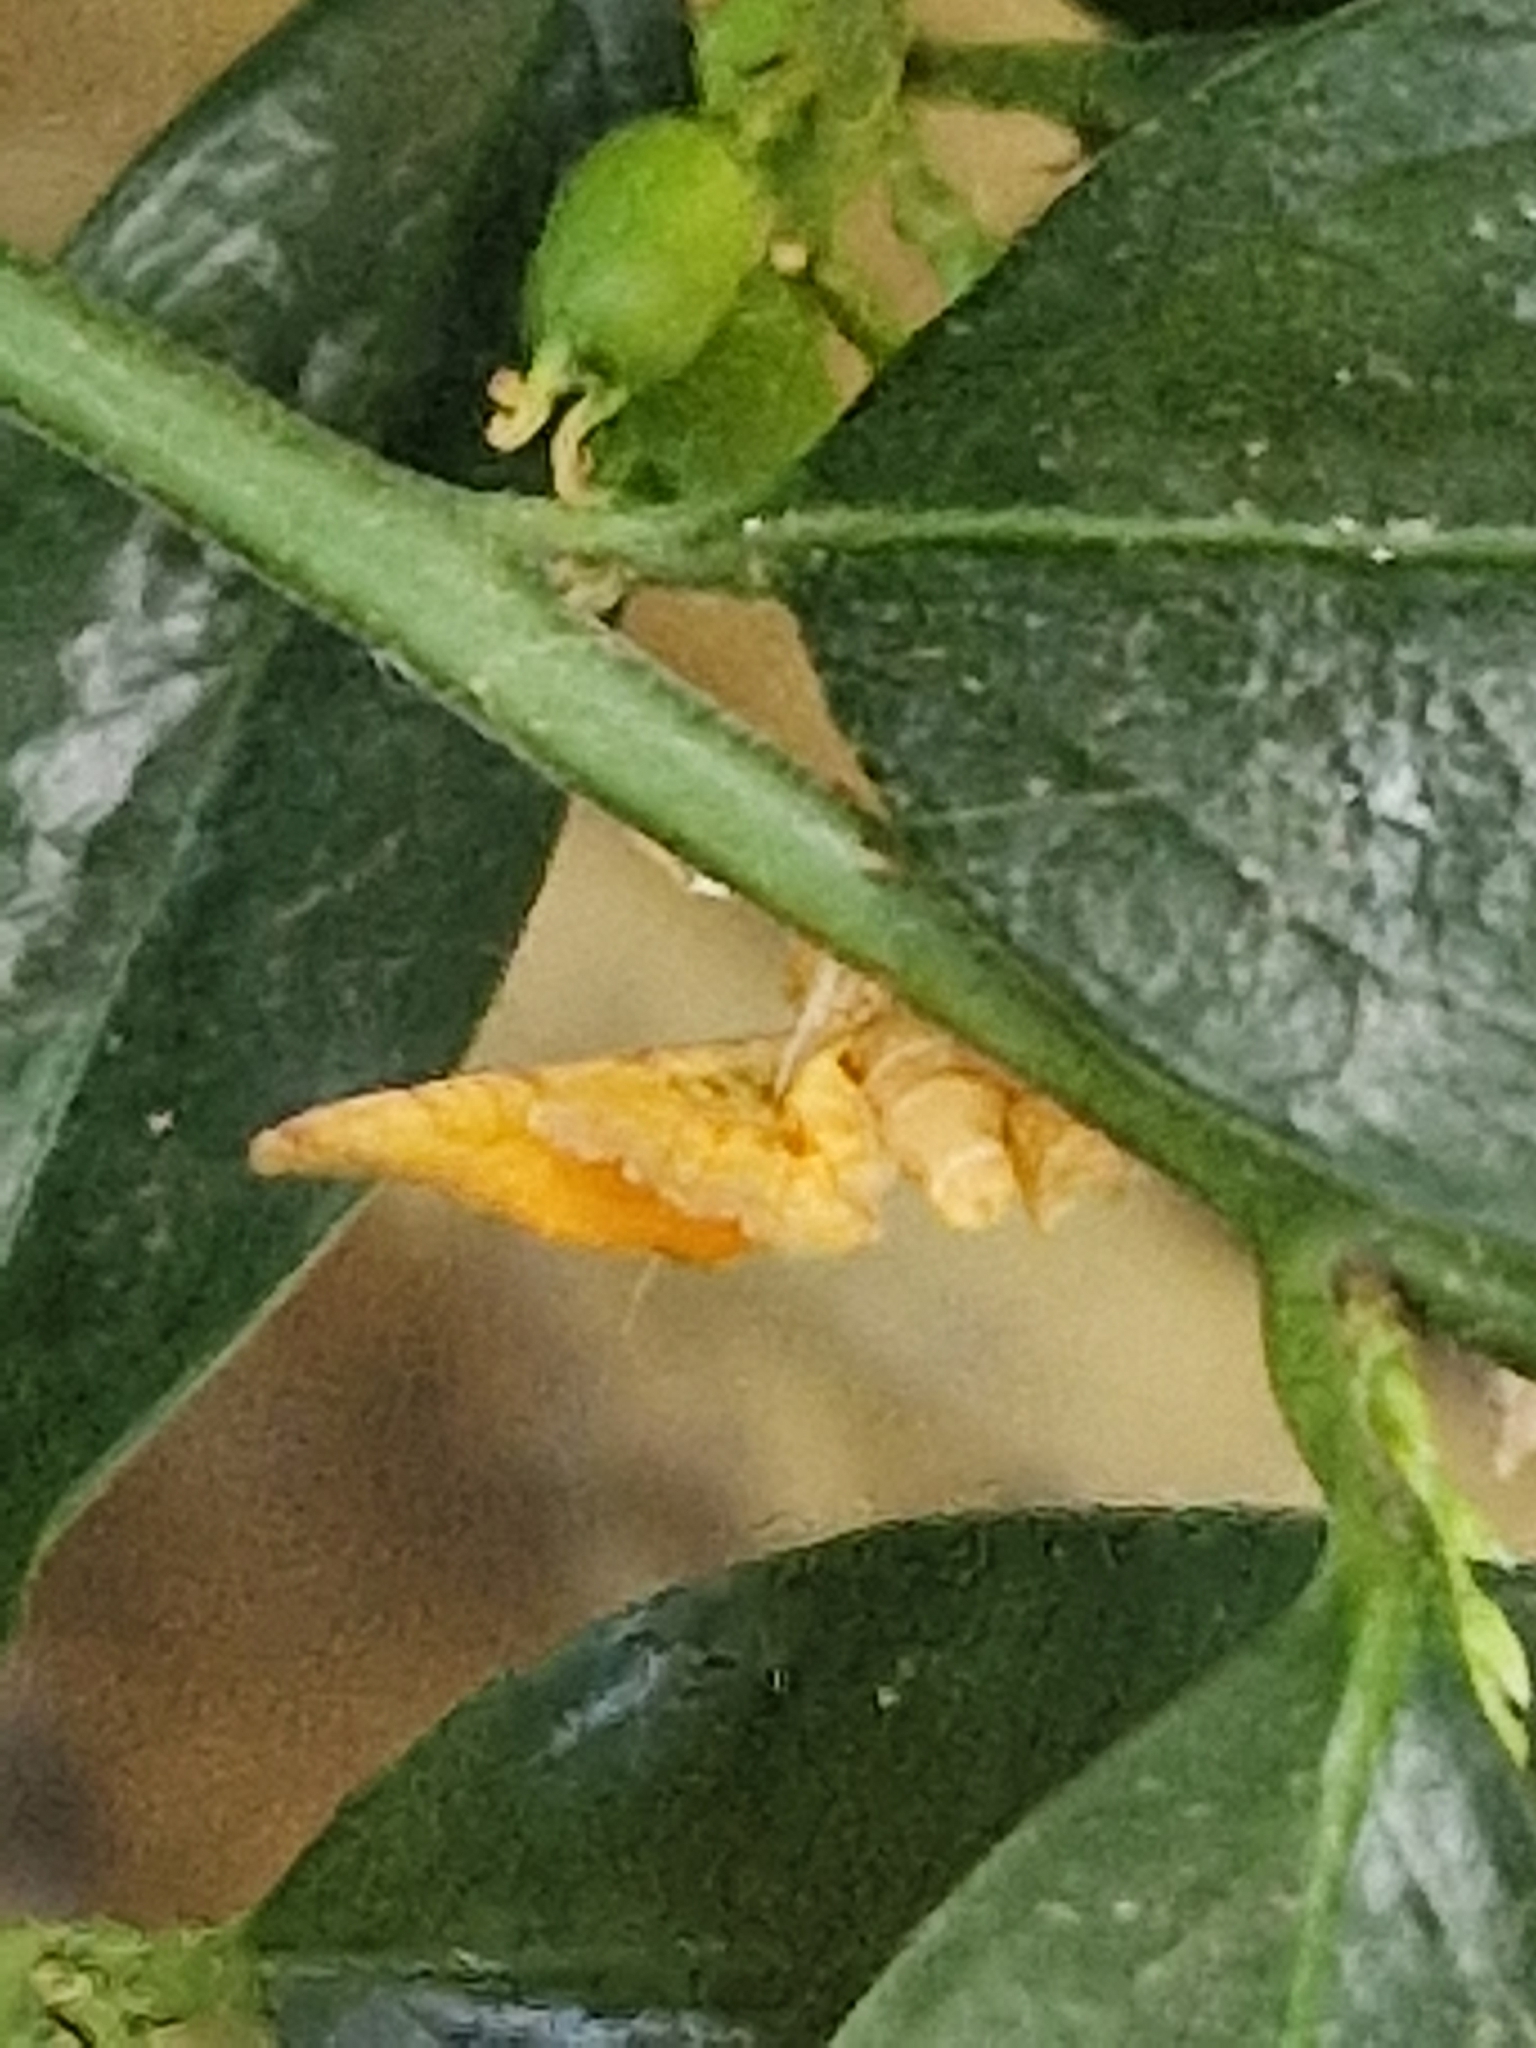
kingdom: Animalia
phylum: Arthropoda
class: Insecta
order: Lepidoptera
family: Geometridae
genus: Camptogramma
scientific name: Camptogramma bilineata
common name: Yellow shell
